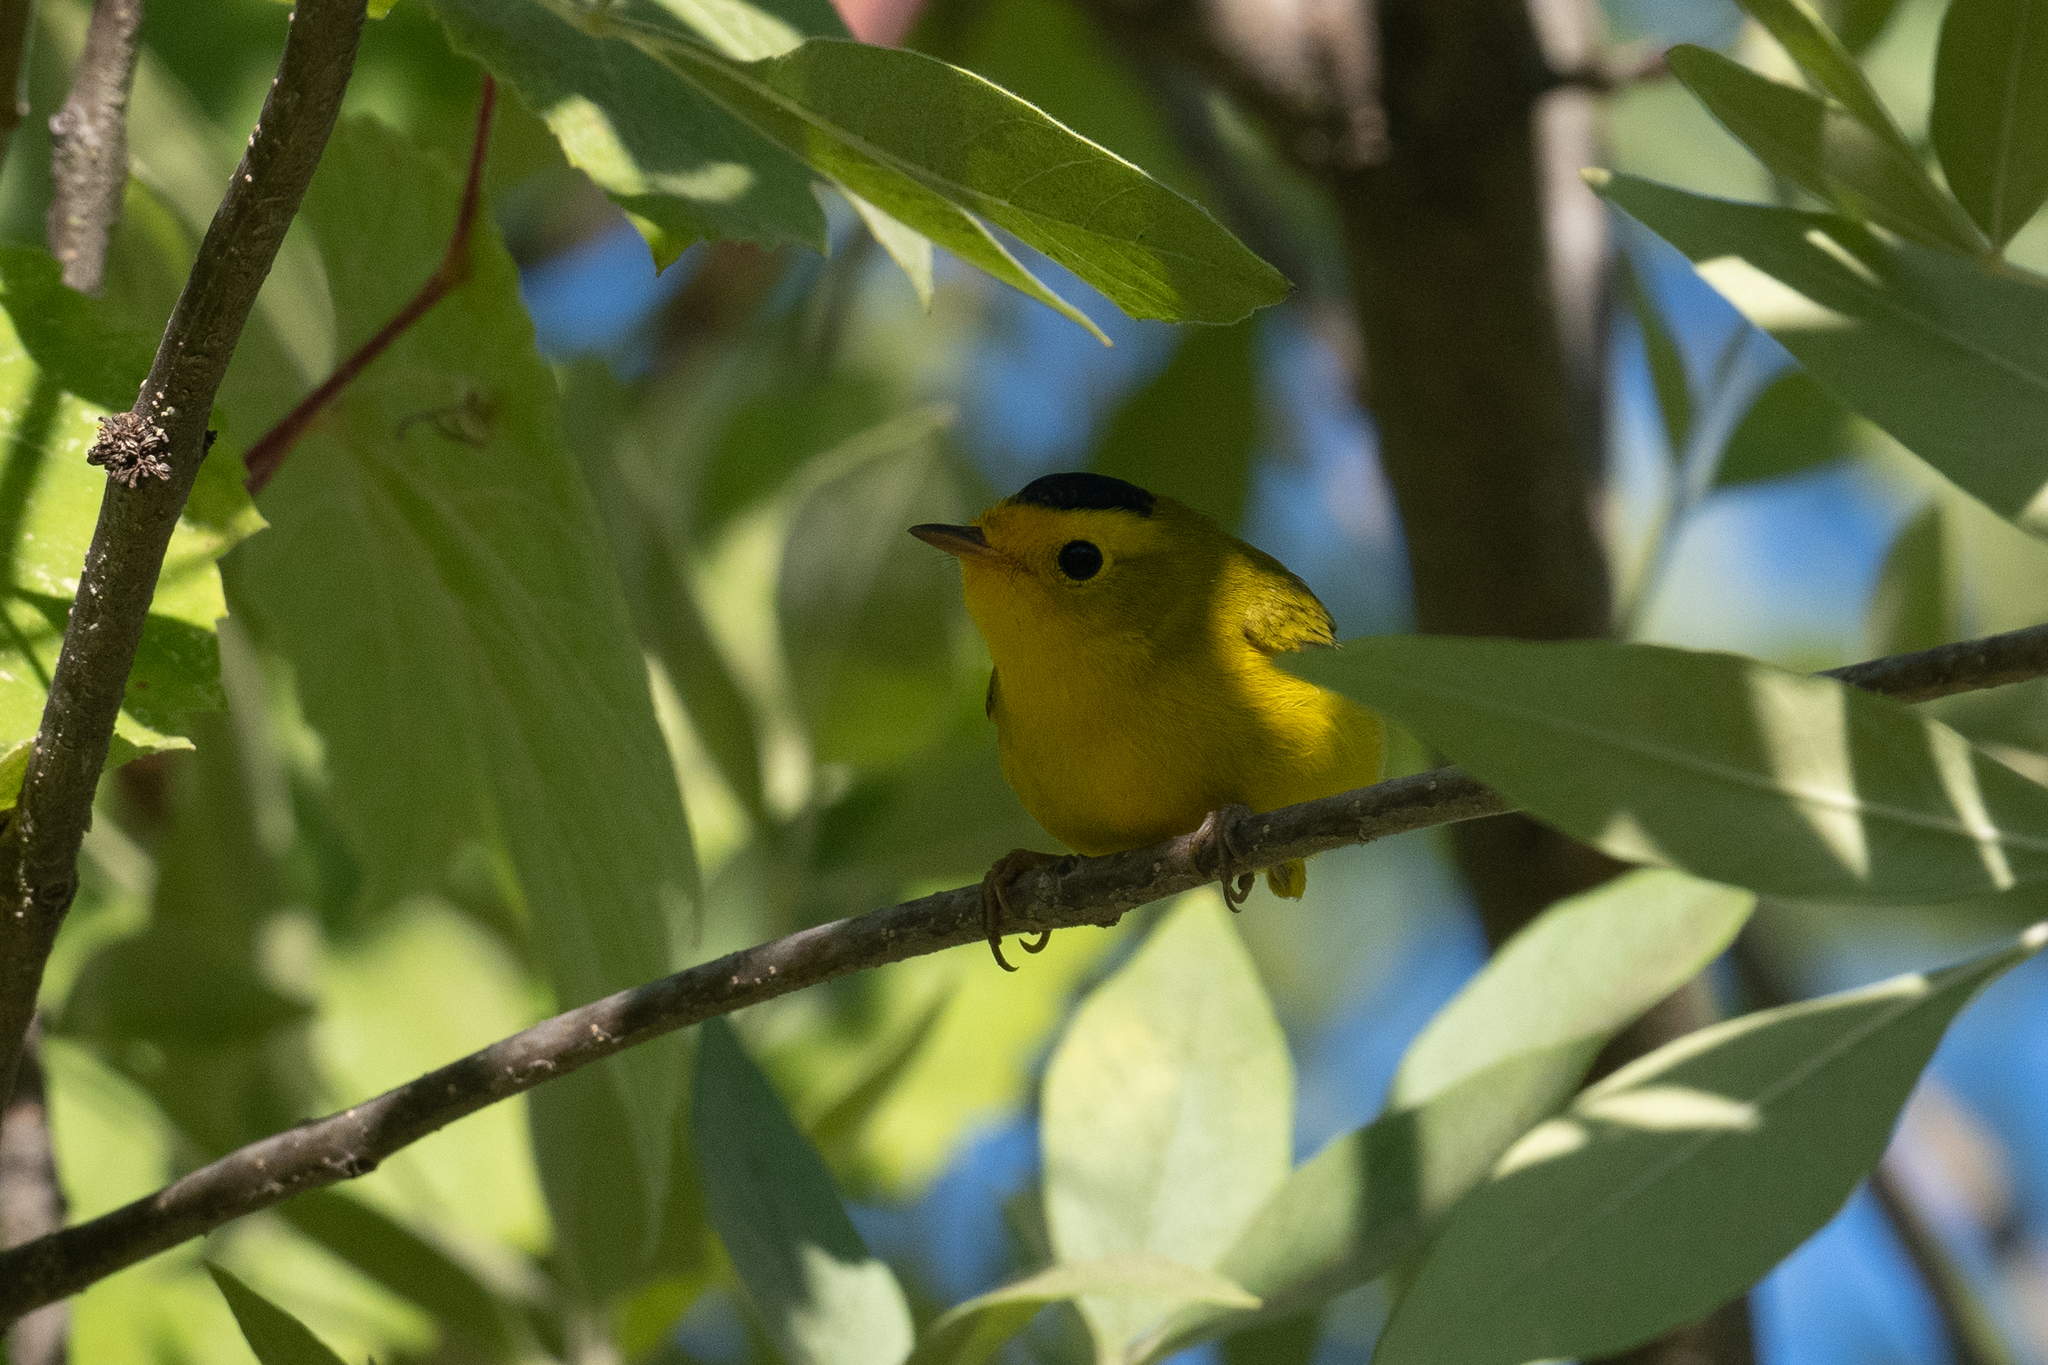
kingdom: Animalia
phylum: Chordata
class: Aves
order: Passeriformes
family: Parulidae
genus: Cardellina
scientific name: Cardellina pusilla
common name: Wilson's warbler
